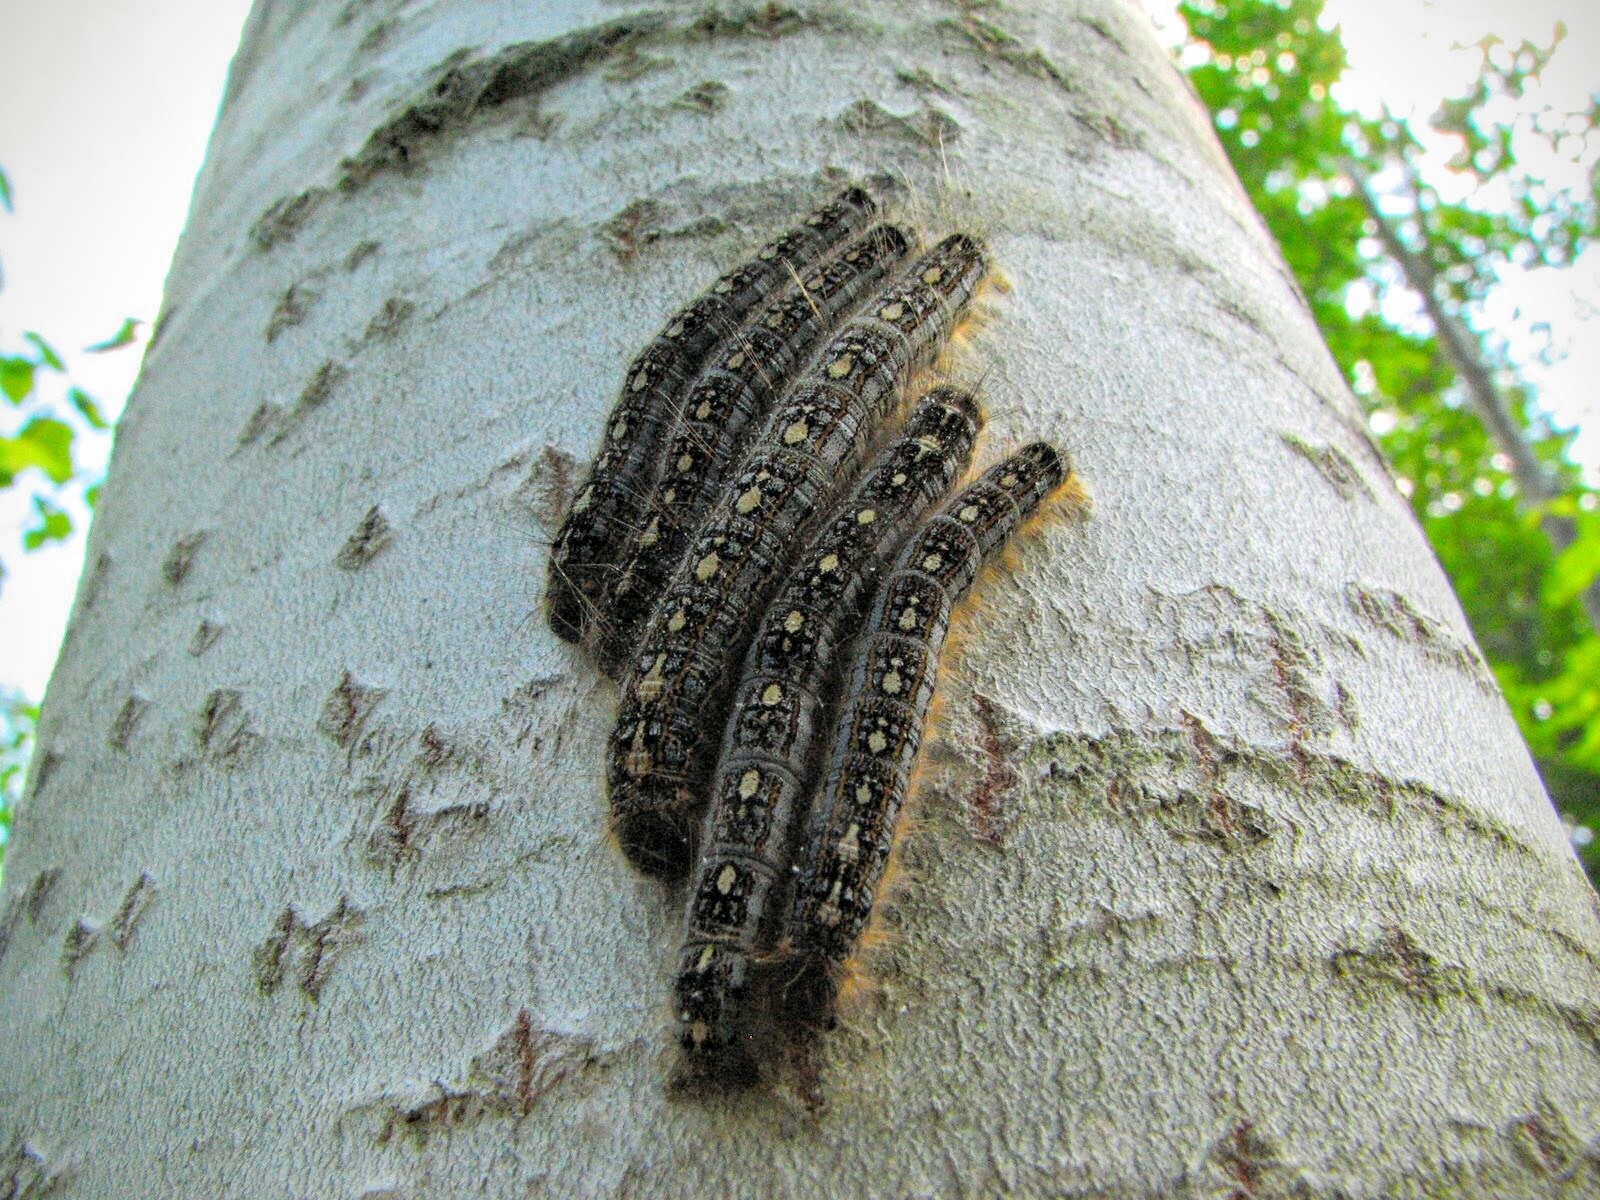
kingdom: Animalia
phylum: Arthropoda
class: Insecta
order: Lepidoptera
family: Lasiocampidae
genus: Malacosoma
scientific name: Malacosoma disstria
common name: Forest tent caterpillar
